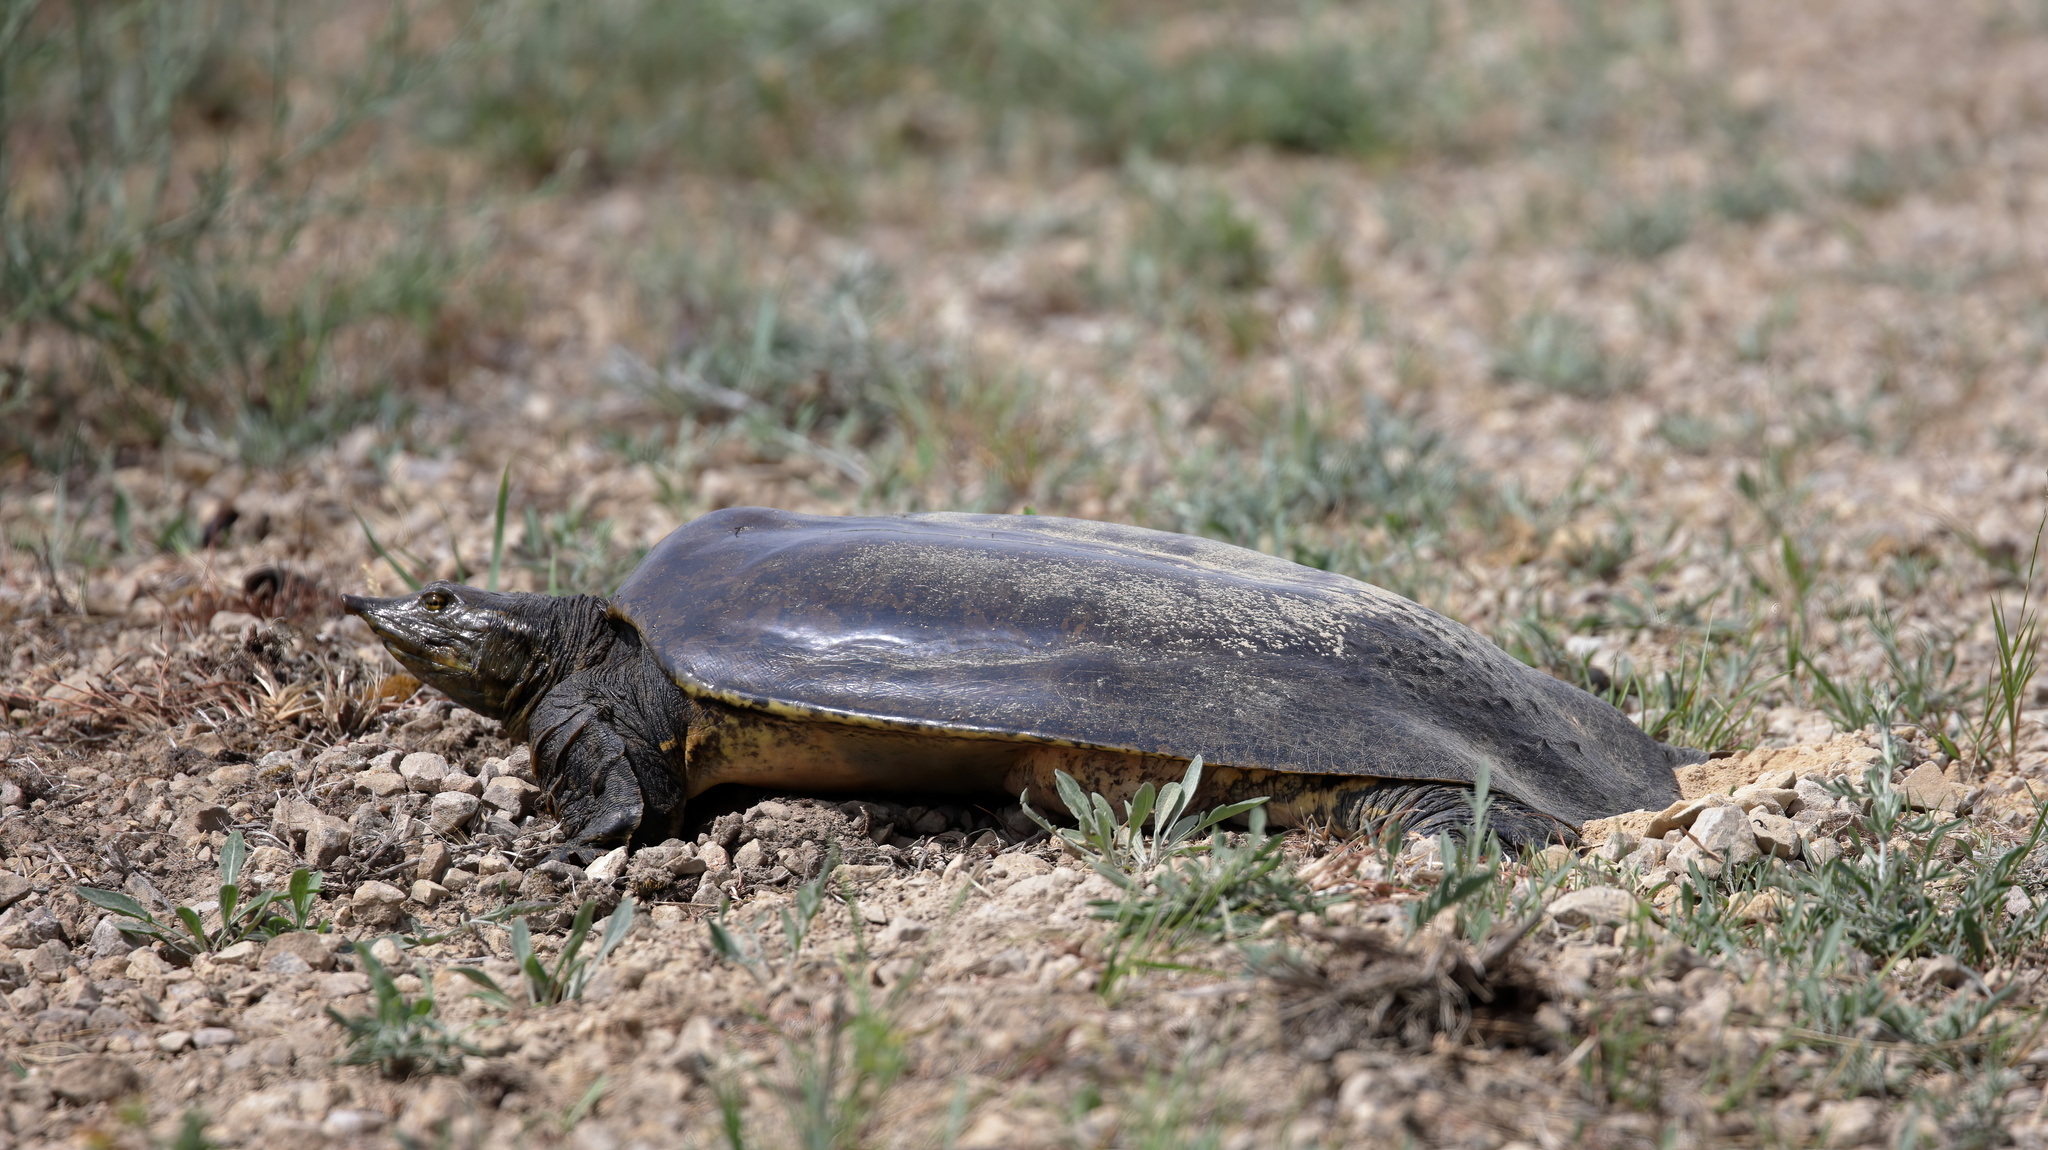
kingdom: Animalia
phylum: Chordata
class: Testudines
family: Trionychidae
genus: Apalone
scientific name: Apalone spinifera
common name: Spiny softshell turtle
